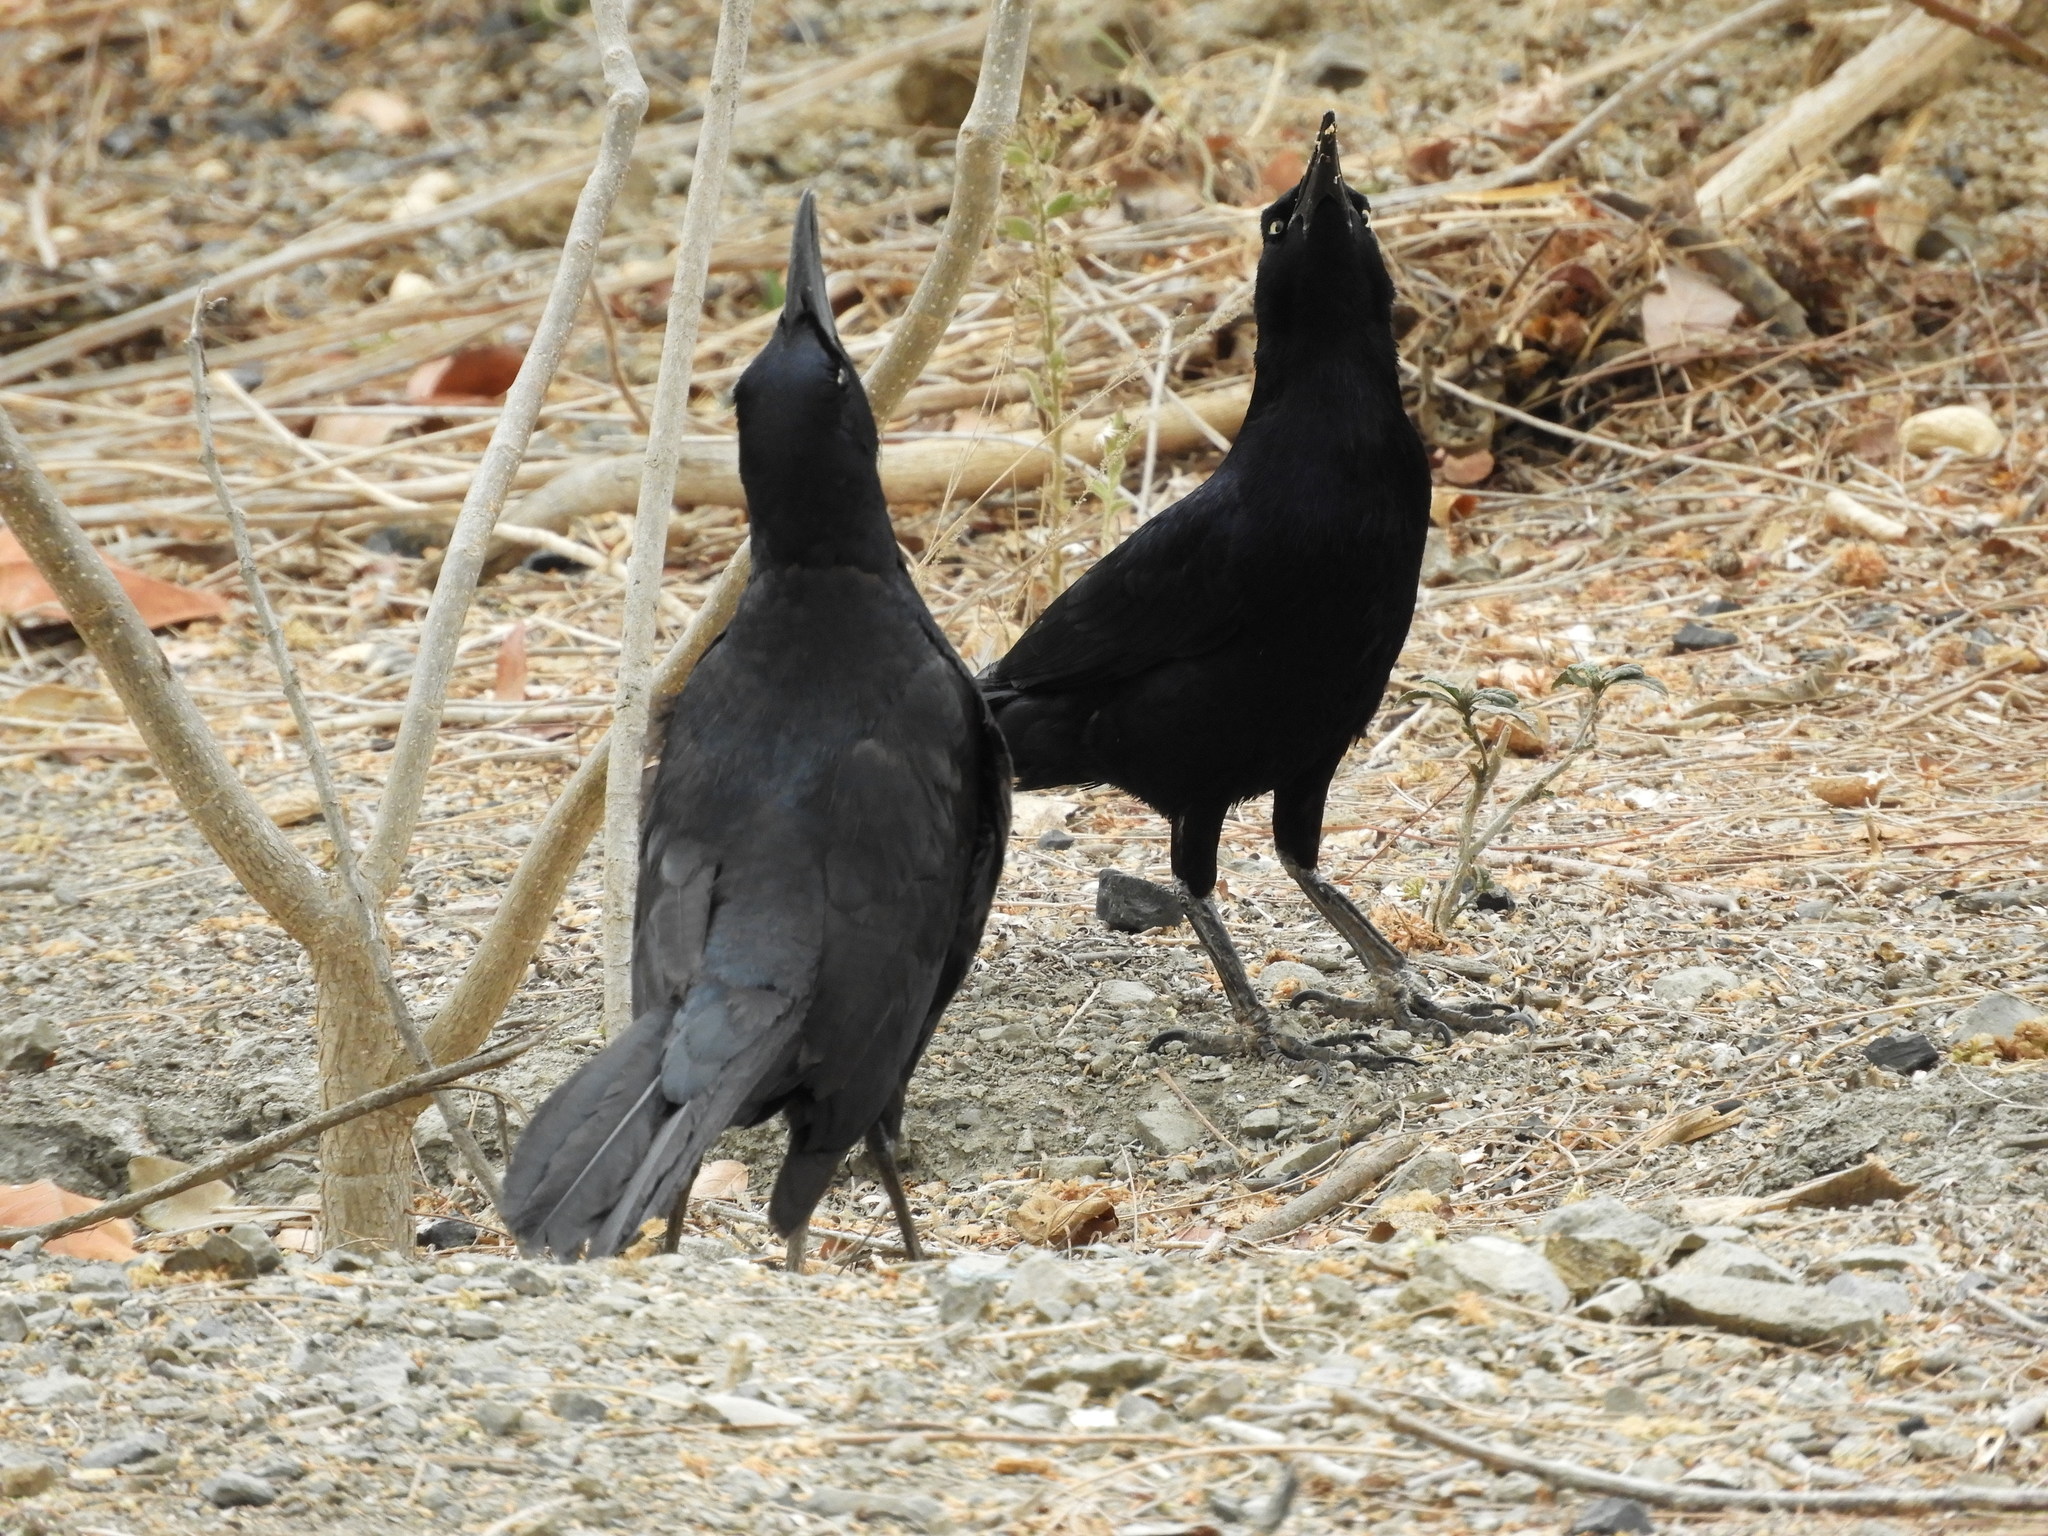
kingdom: Animalia
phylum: Chordata
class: Aves
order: Passeriformes
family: Icteridae
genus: Quiscalus
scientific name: Quiscalus mexicanus
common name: Great-tailed grackle
